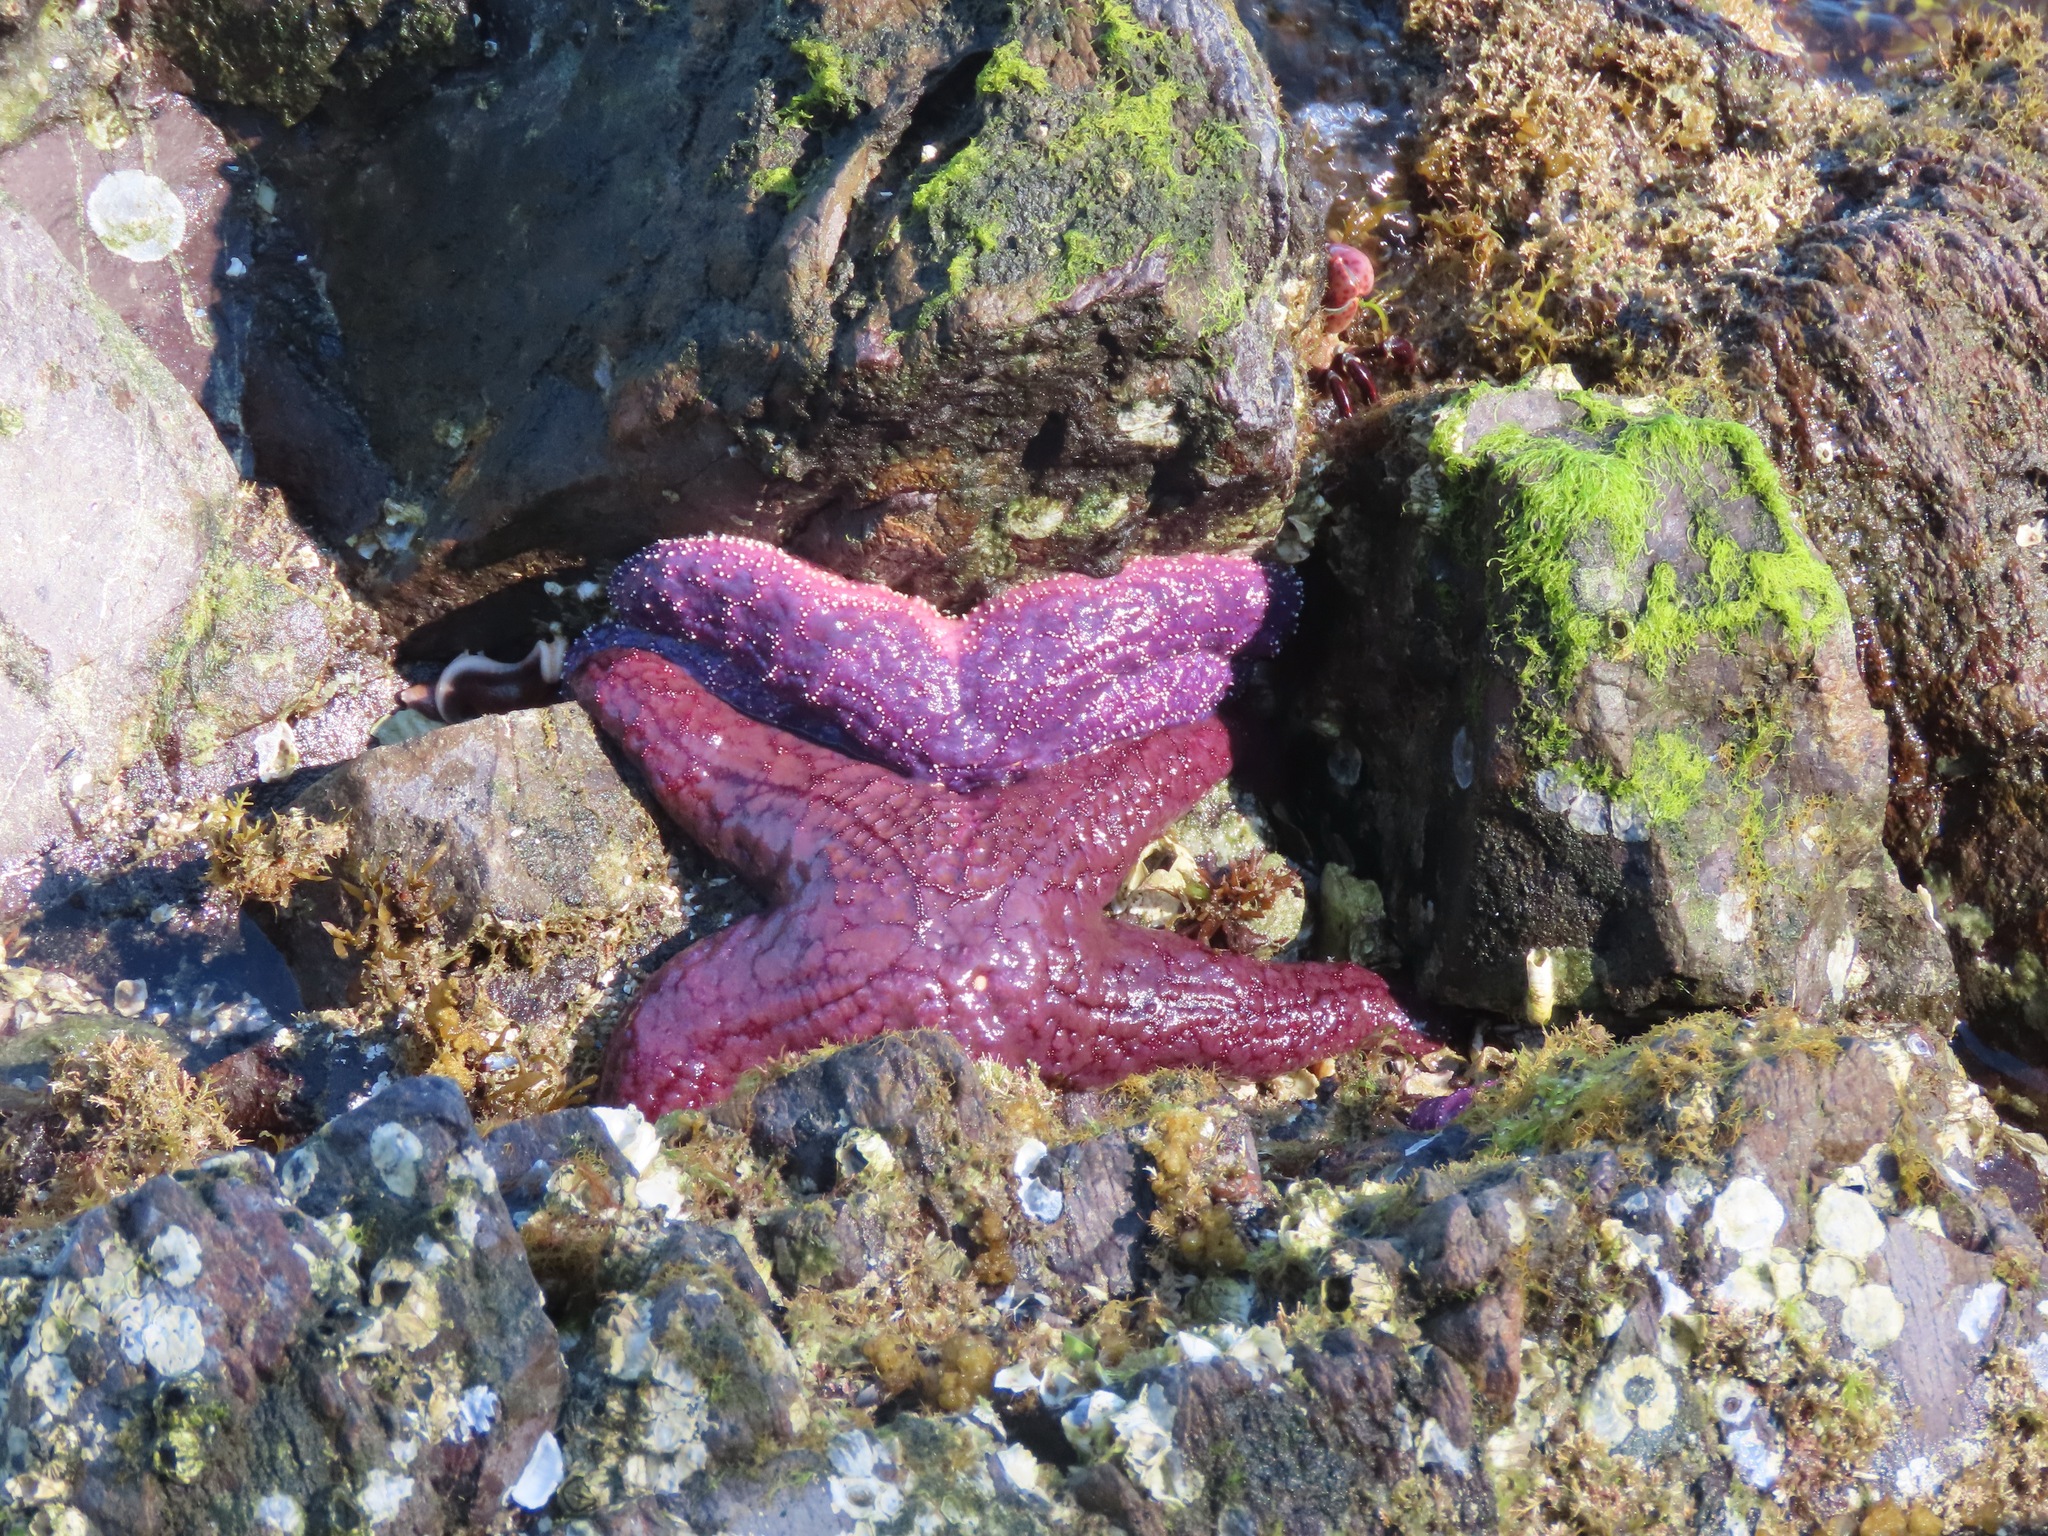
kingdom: Animalia
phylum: Echinodermata
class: Asteroidea
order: Forcipulatida
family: Asteriidae
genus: Pisaster
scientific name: Pisaster ochraceus
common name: Ochre stars
